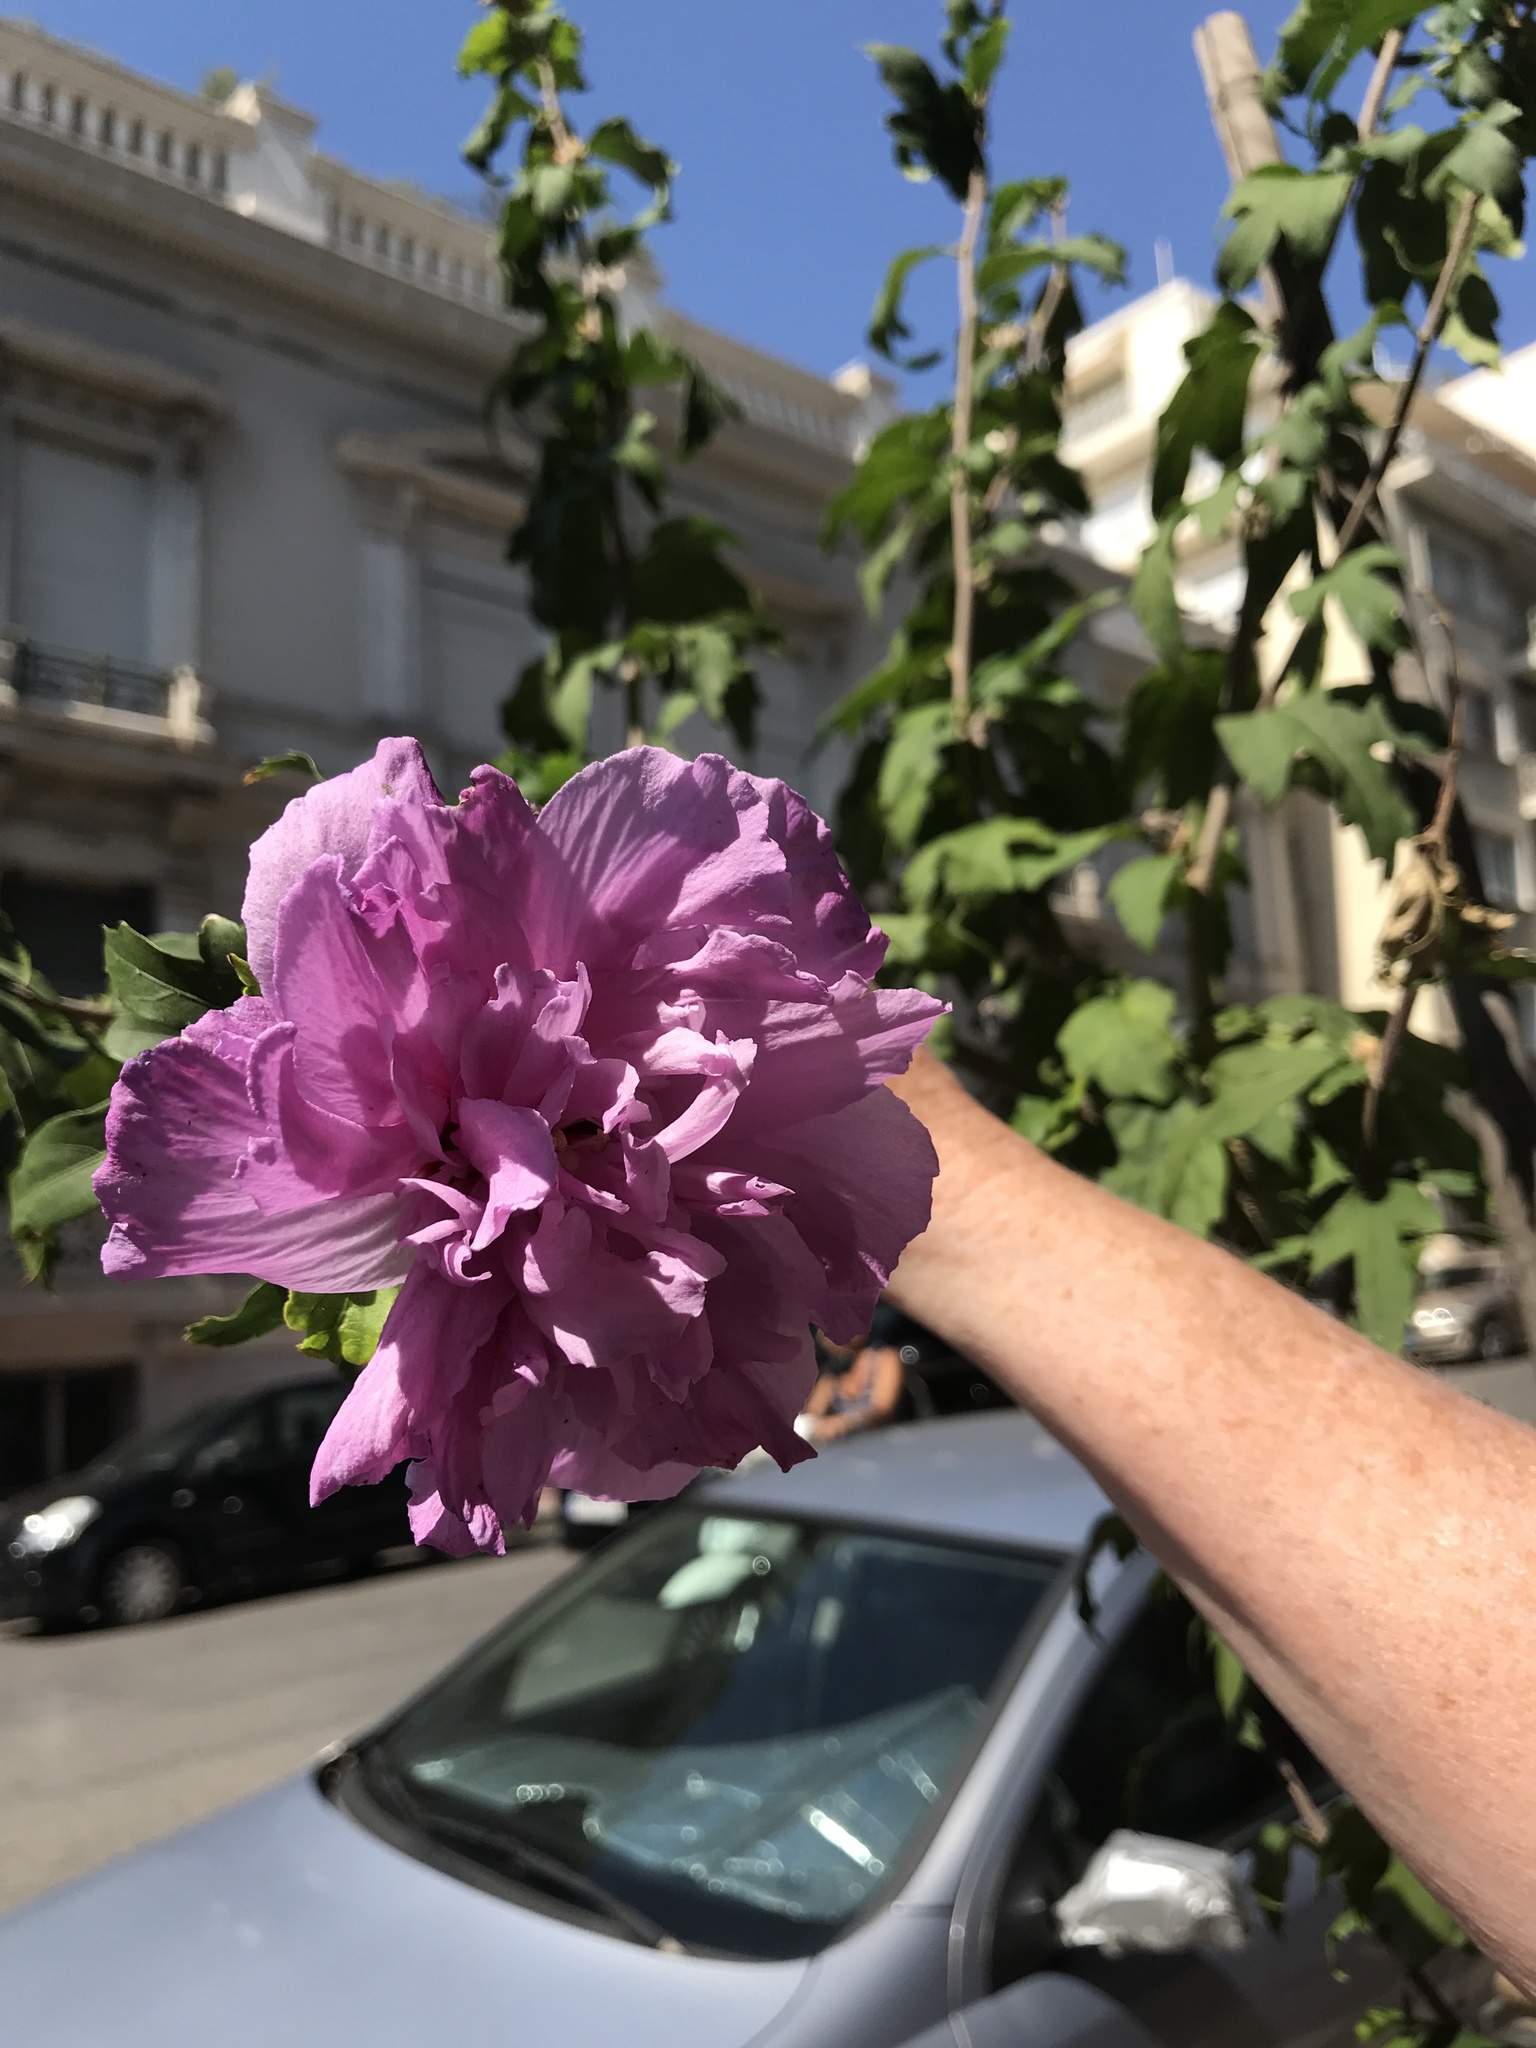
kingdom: Plantae
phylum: Tracheophyta
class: Magnoliopsida
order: Malvales
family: Malvaceae
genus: Hibiscus
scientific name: Hibiscus syriacus
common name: Syrian ketmia
